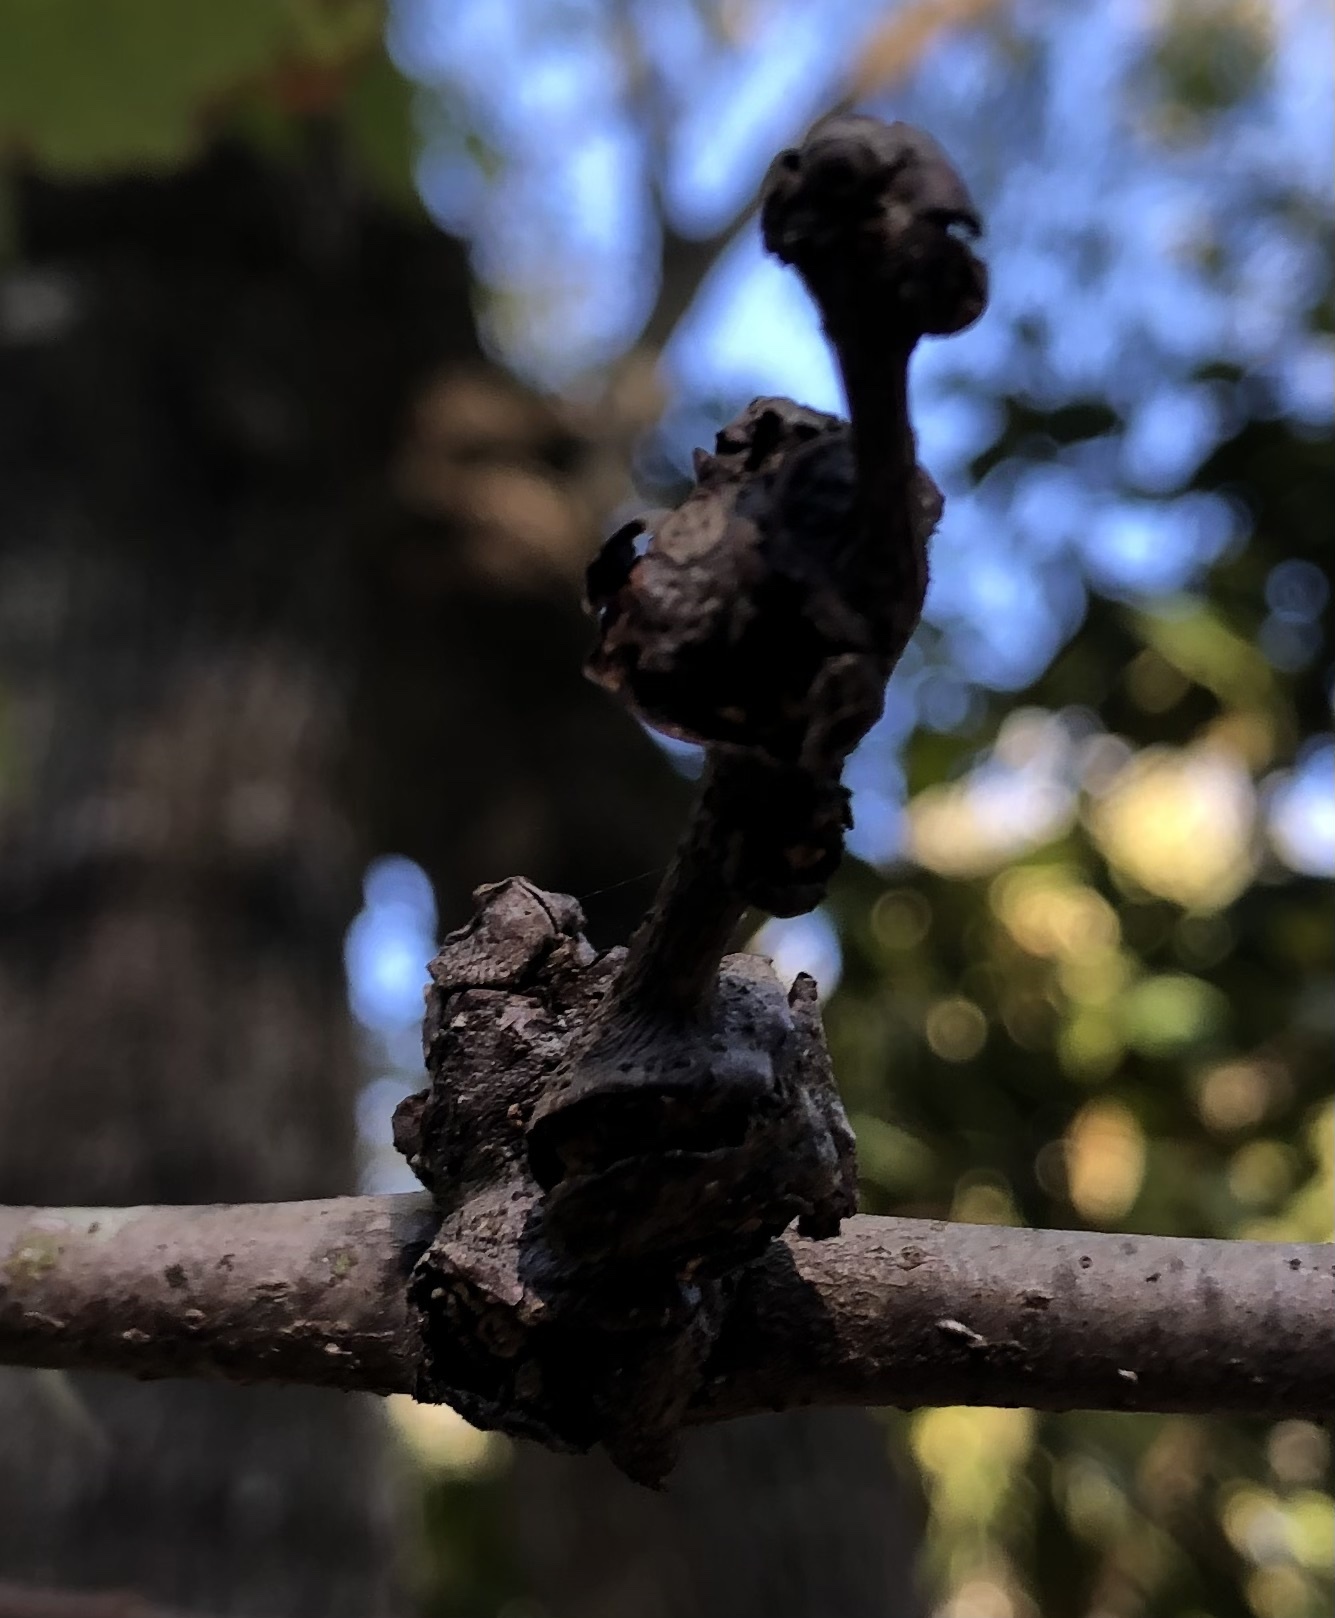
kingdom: Animalia
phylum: Arthropoda
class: Insecta
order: Hymenoptera
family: Cynipidae
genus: Andricus
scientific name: Andricus
